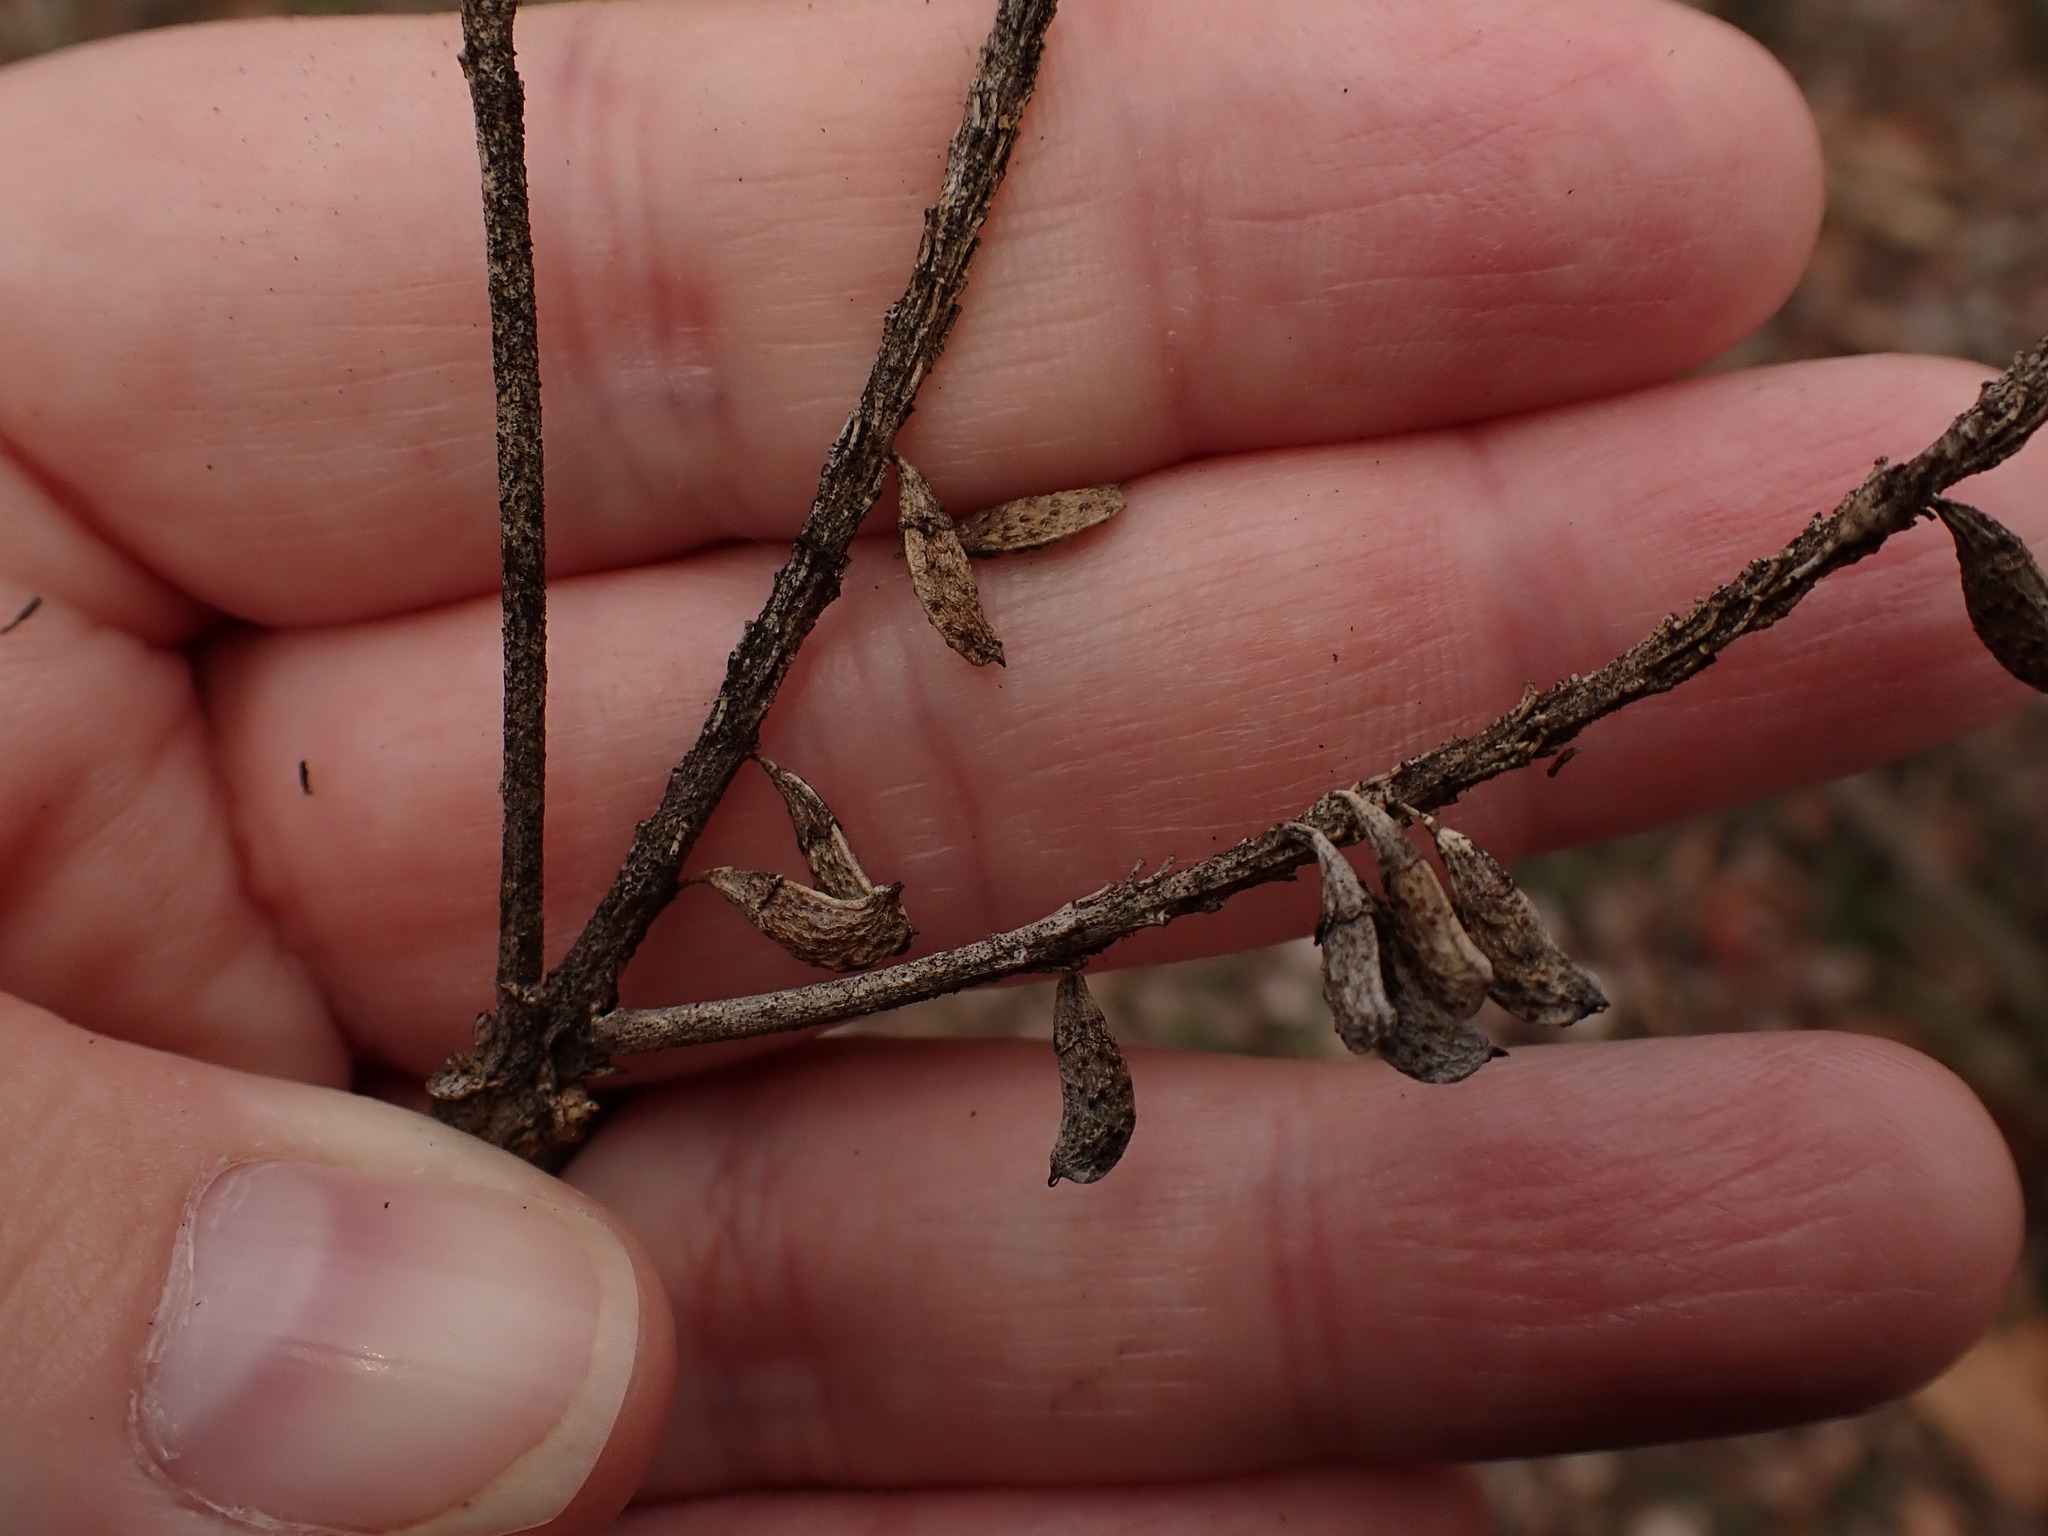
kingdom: Plantae
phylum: Tracheophyta
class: Magnoliopsida
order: Fabales
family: Fabaceae
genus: Amorpha
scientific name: Amorpha fruticosa
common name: False indigo
